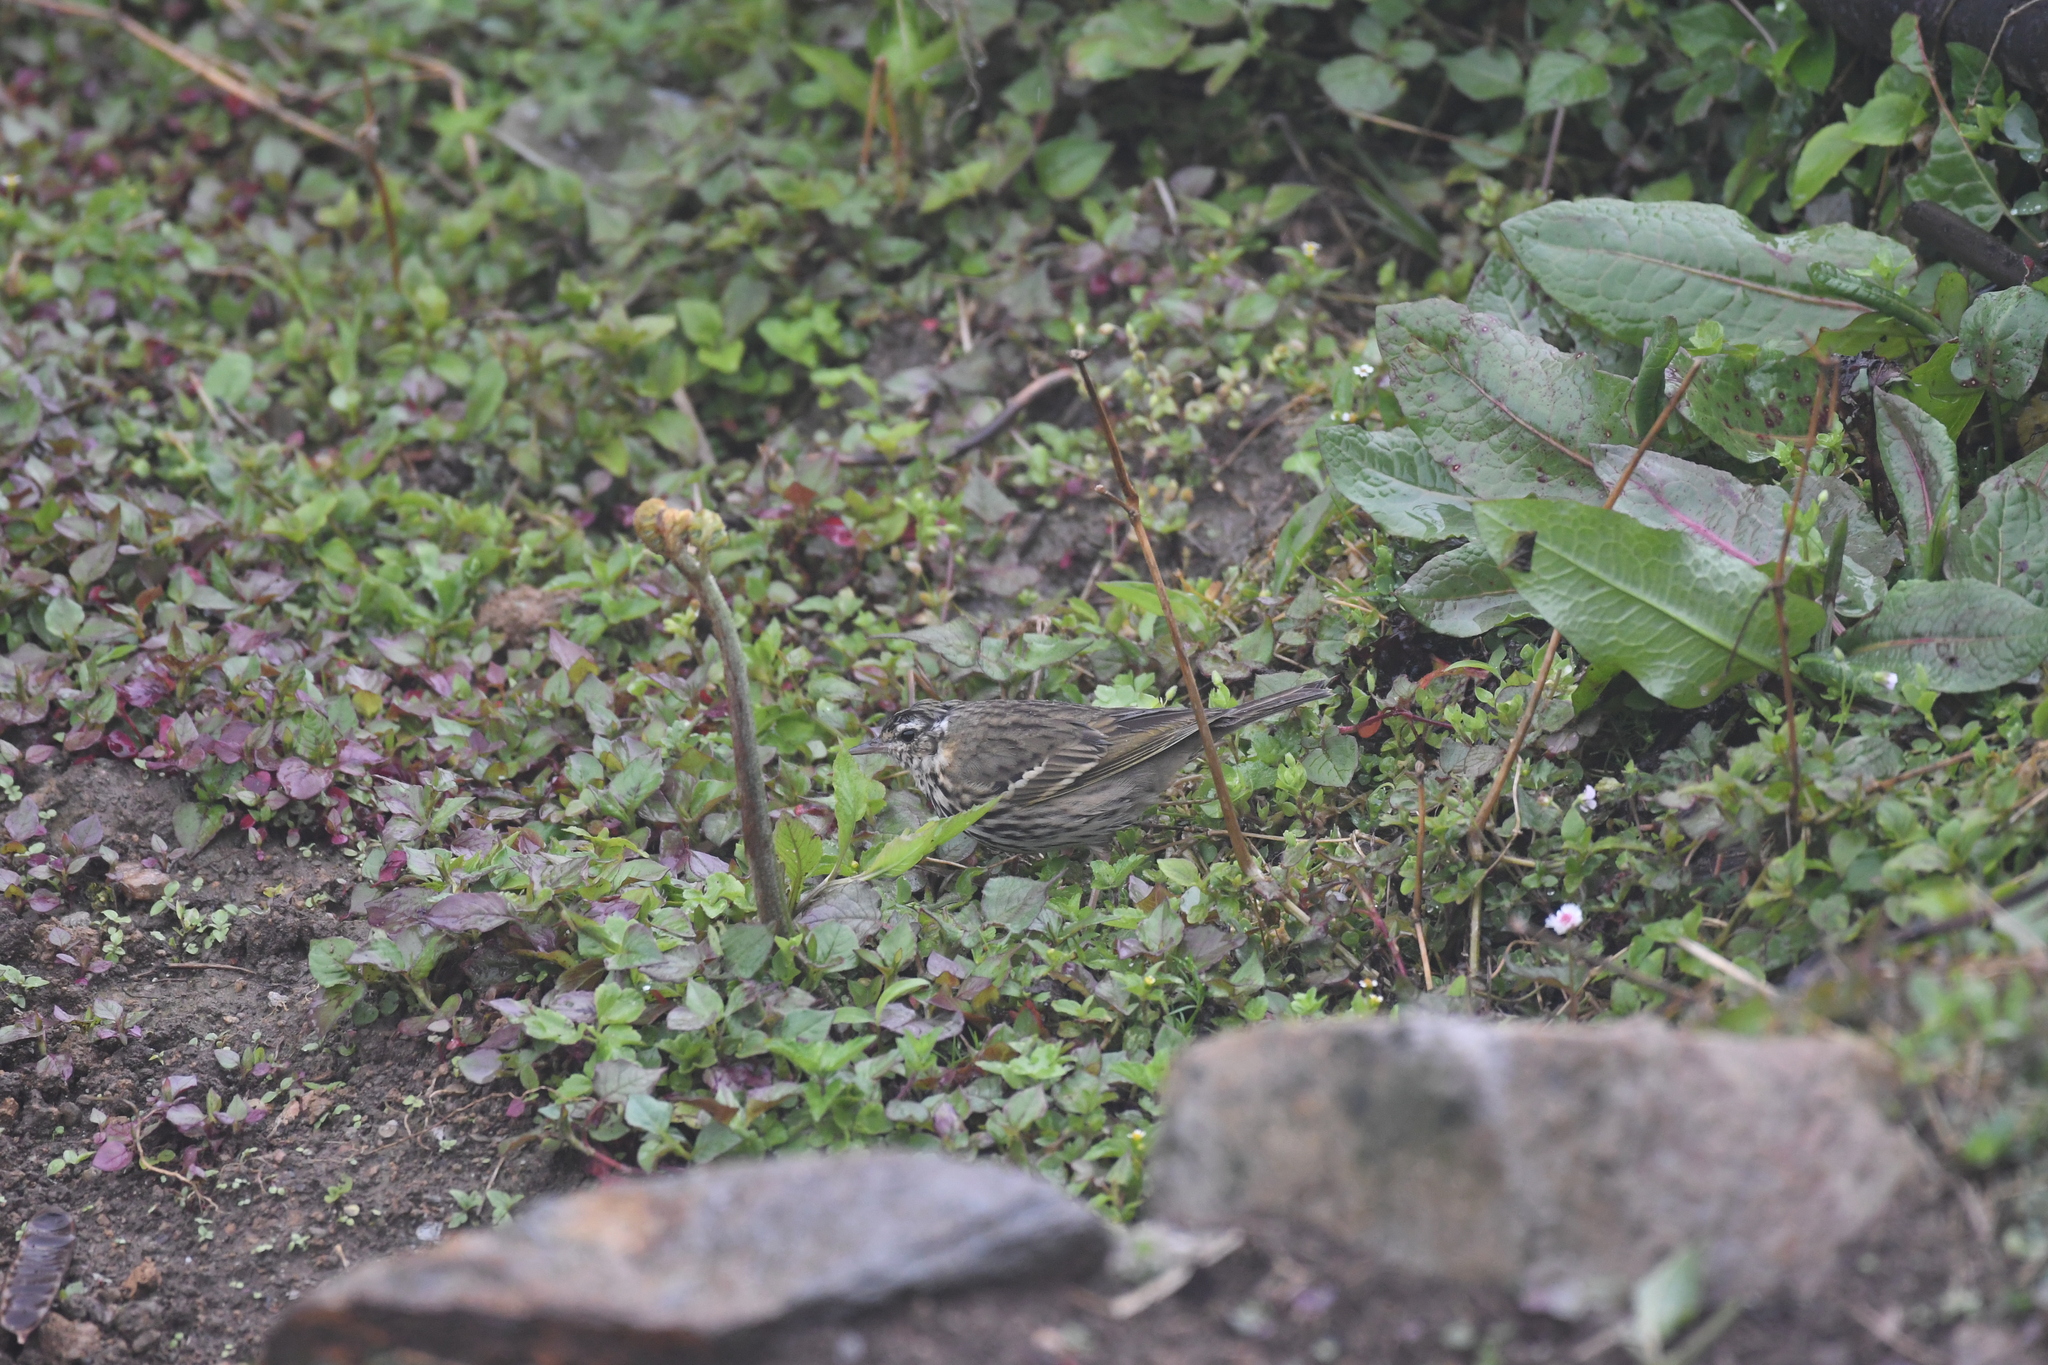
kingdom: Animalia
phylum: Chordata
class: Aves
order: Passeriformes
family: Motacillidae
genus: Anthus
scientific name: Anthus hodgsoni
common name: Olive-backed pipit
